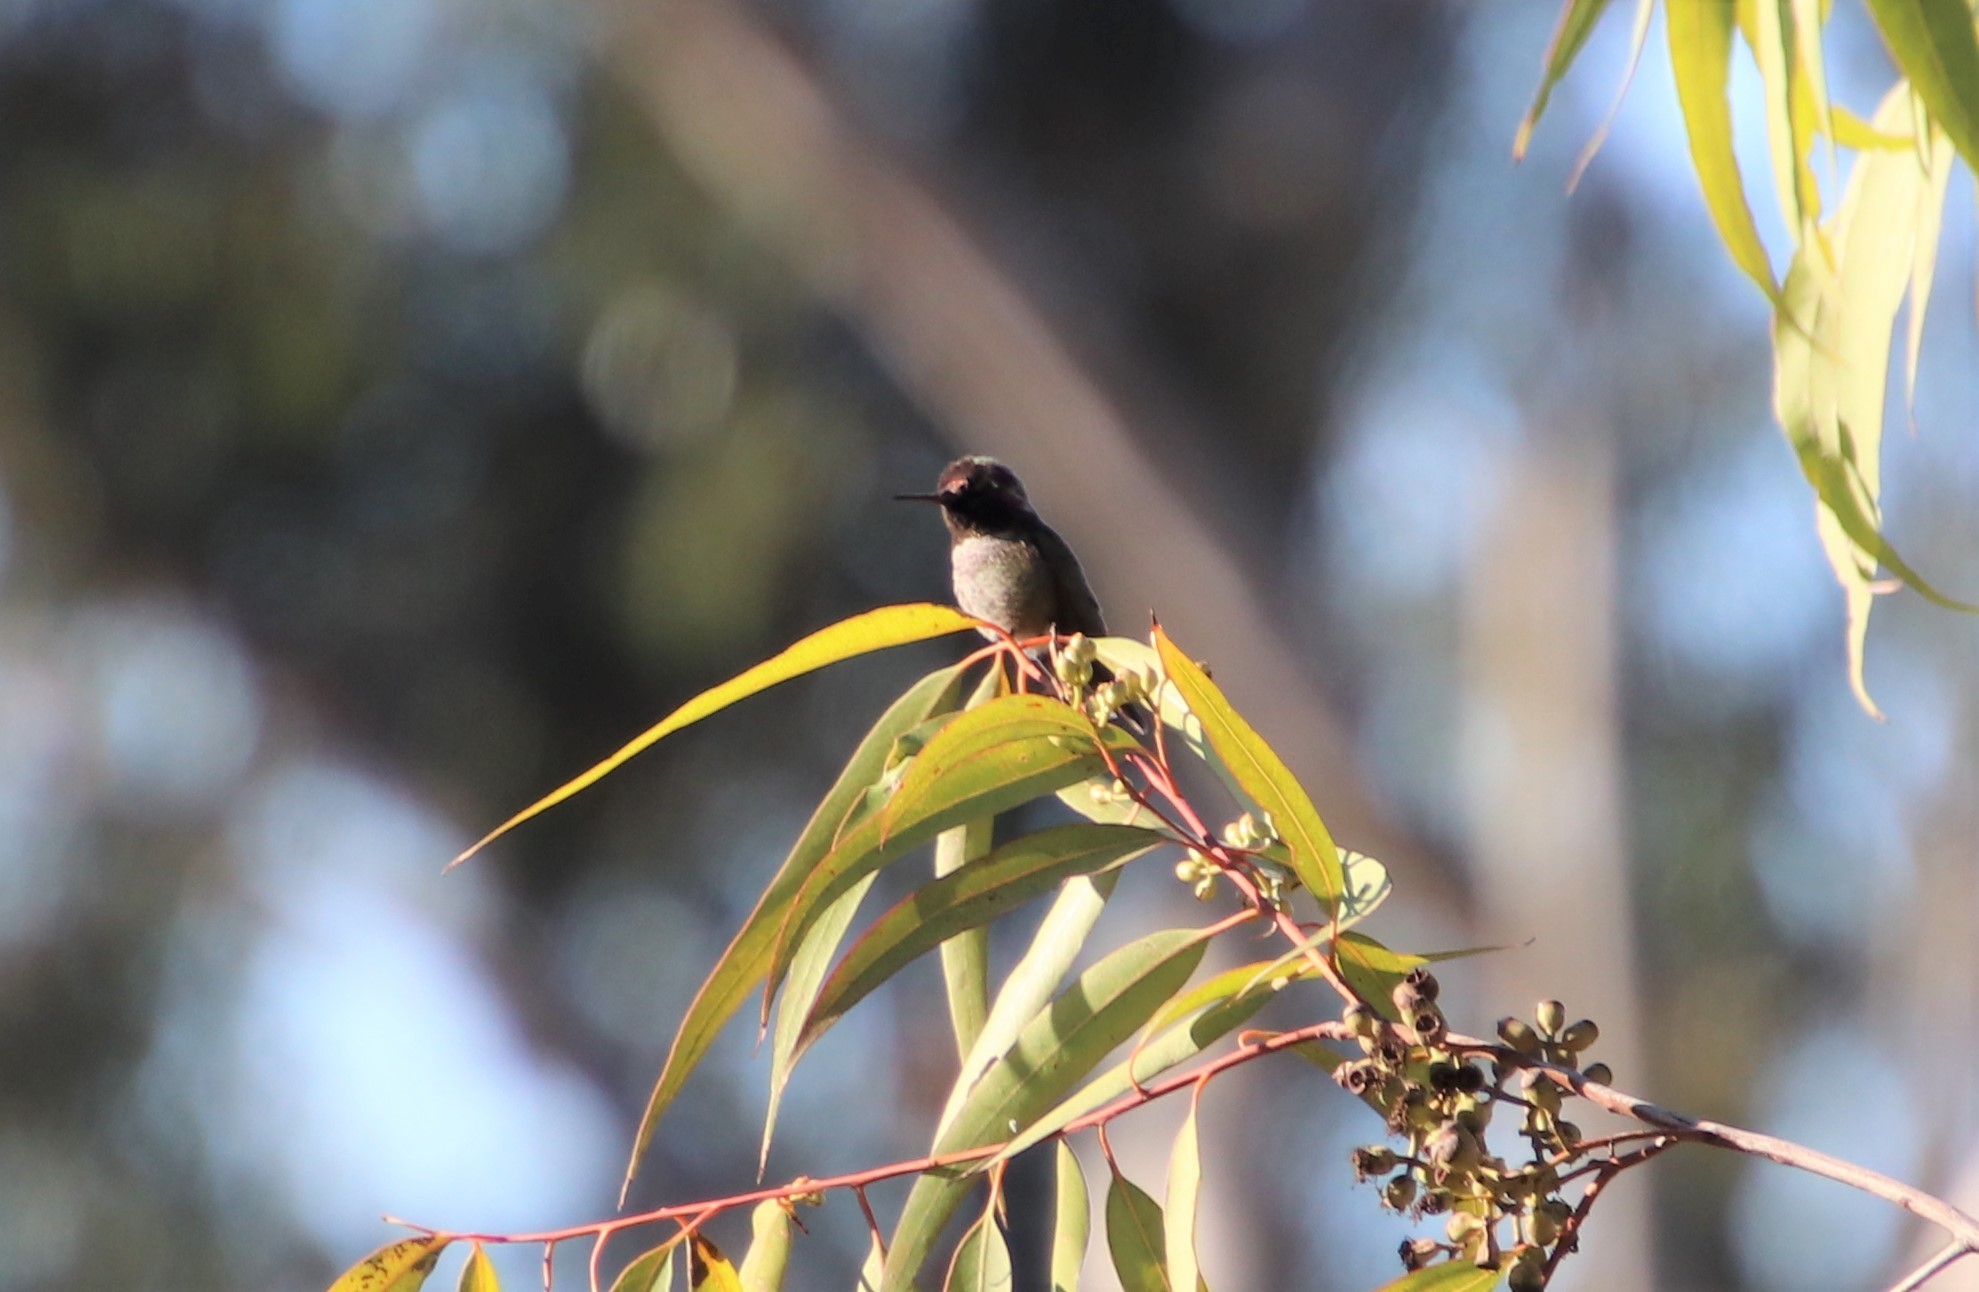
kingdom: Animalia
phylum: Chordata
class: Aves
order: Apodiformes
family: Trochilidae
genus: Calypte
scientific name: Calypte anna
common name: Anna's hummingbird
